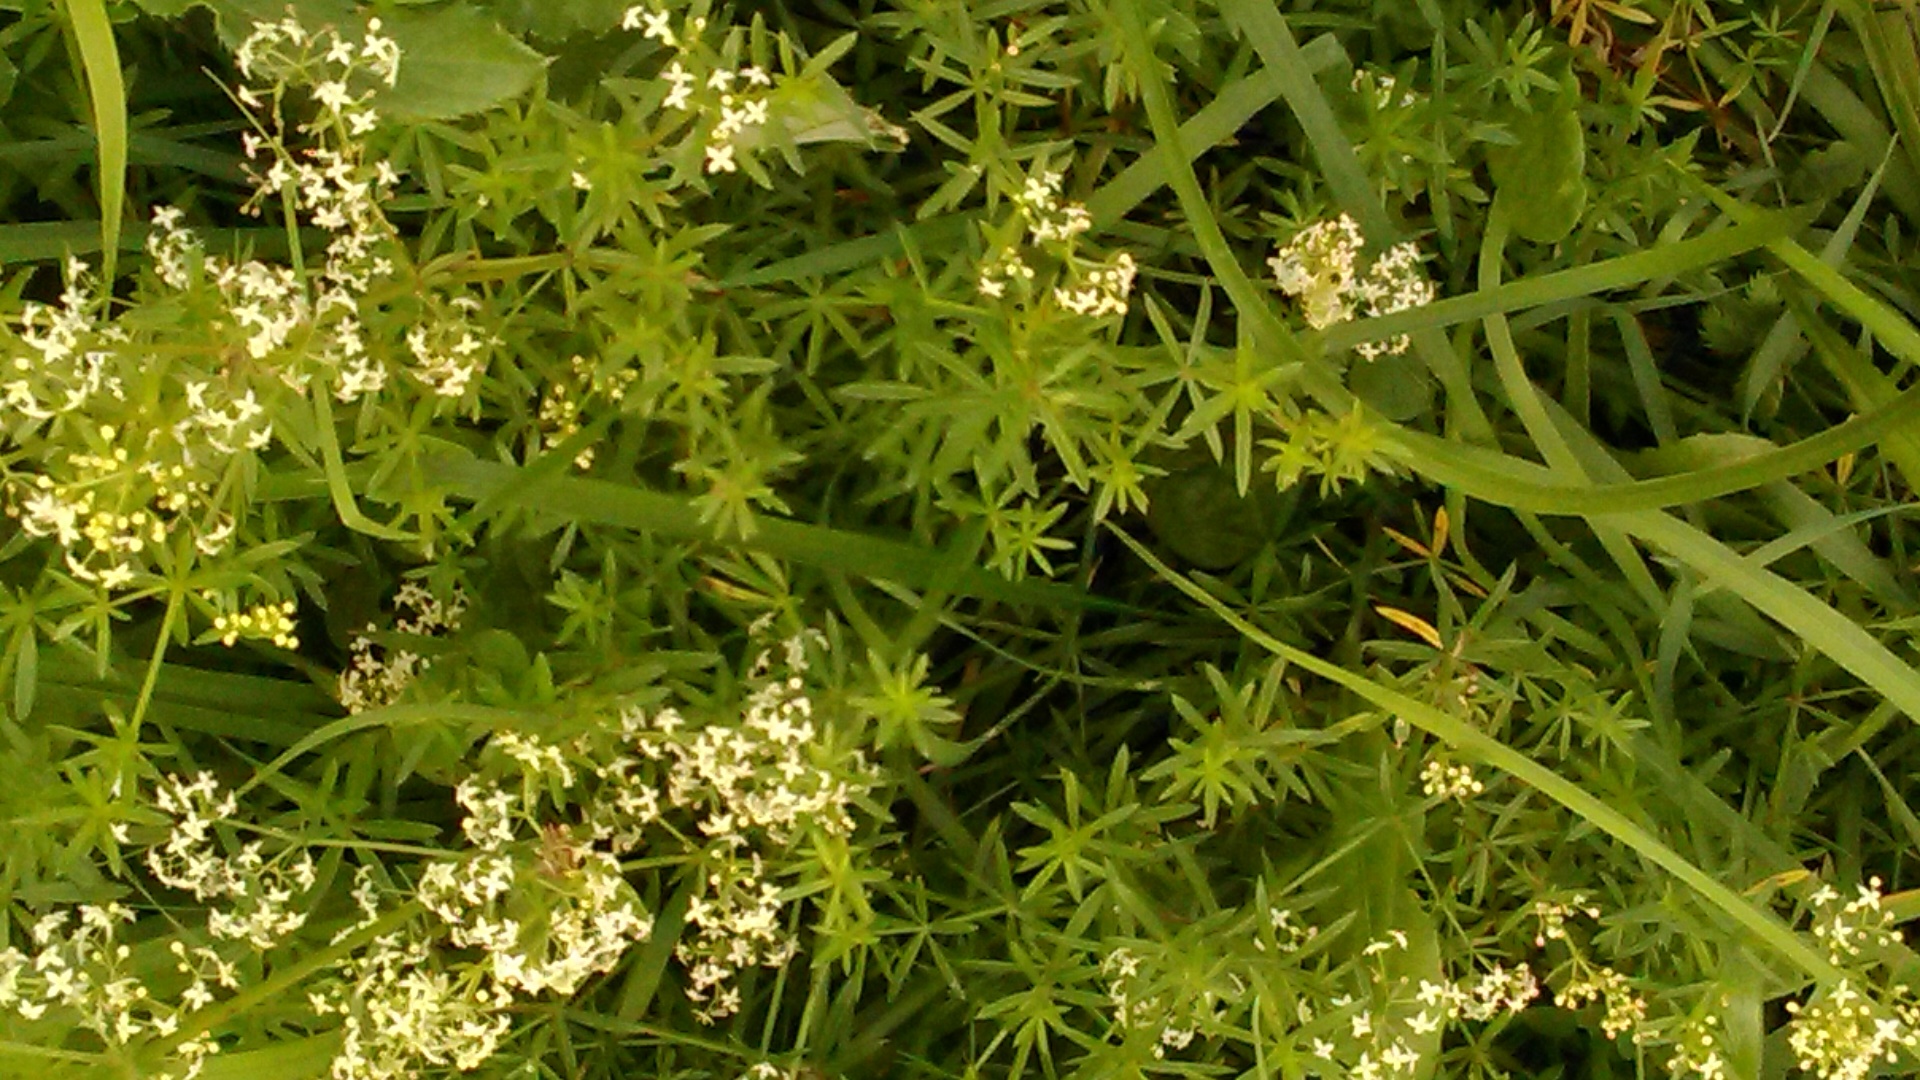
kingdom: Plantae
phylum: Tracheophyta
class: Magnoliopsida
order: Gentianales
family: Rubiaceae
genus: Galium
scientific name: Galium mollugo
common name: Hedge bedstraw
